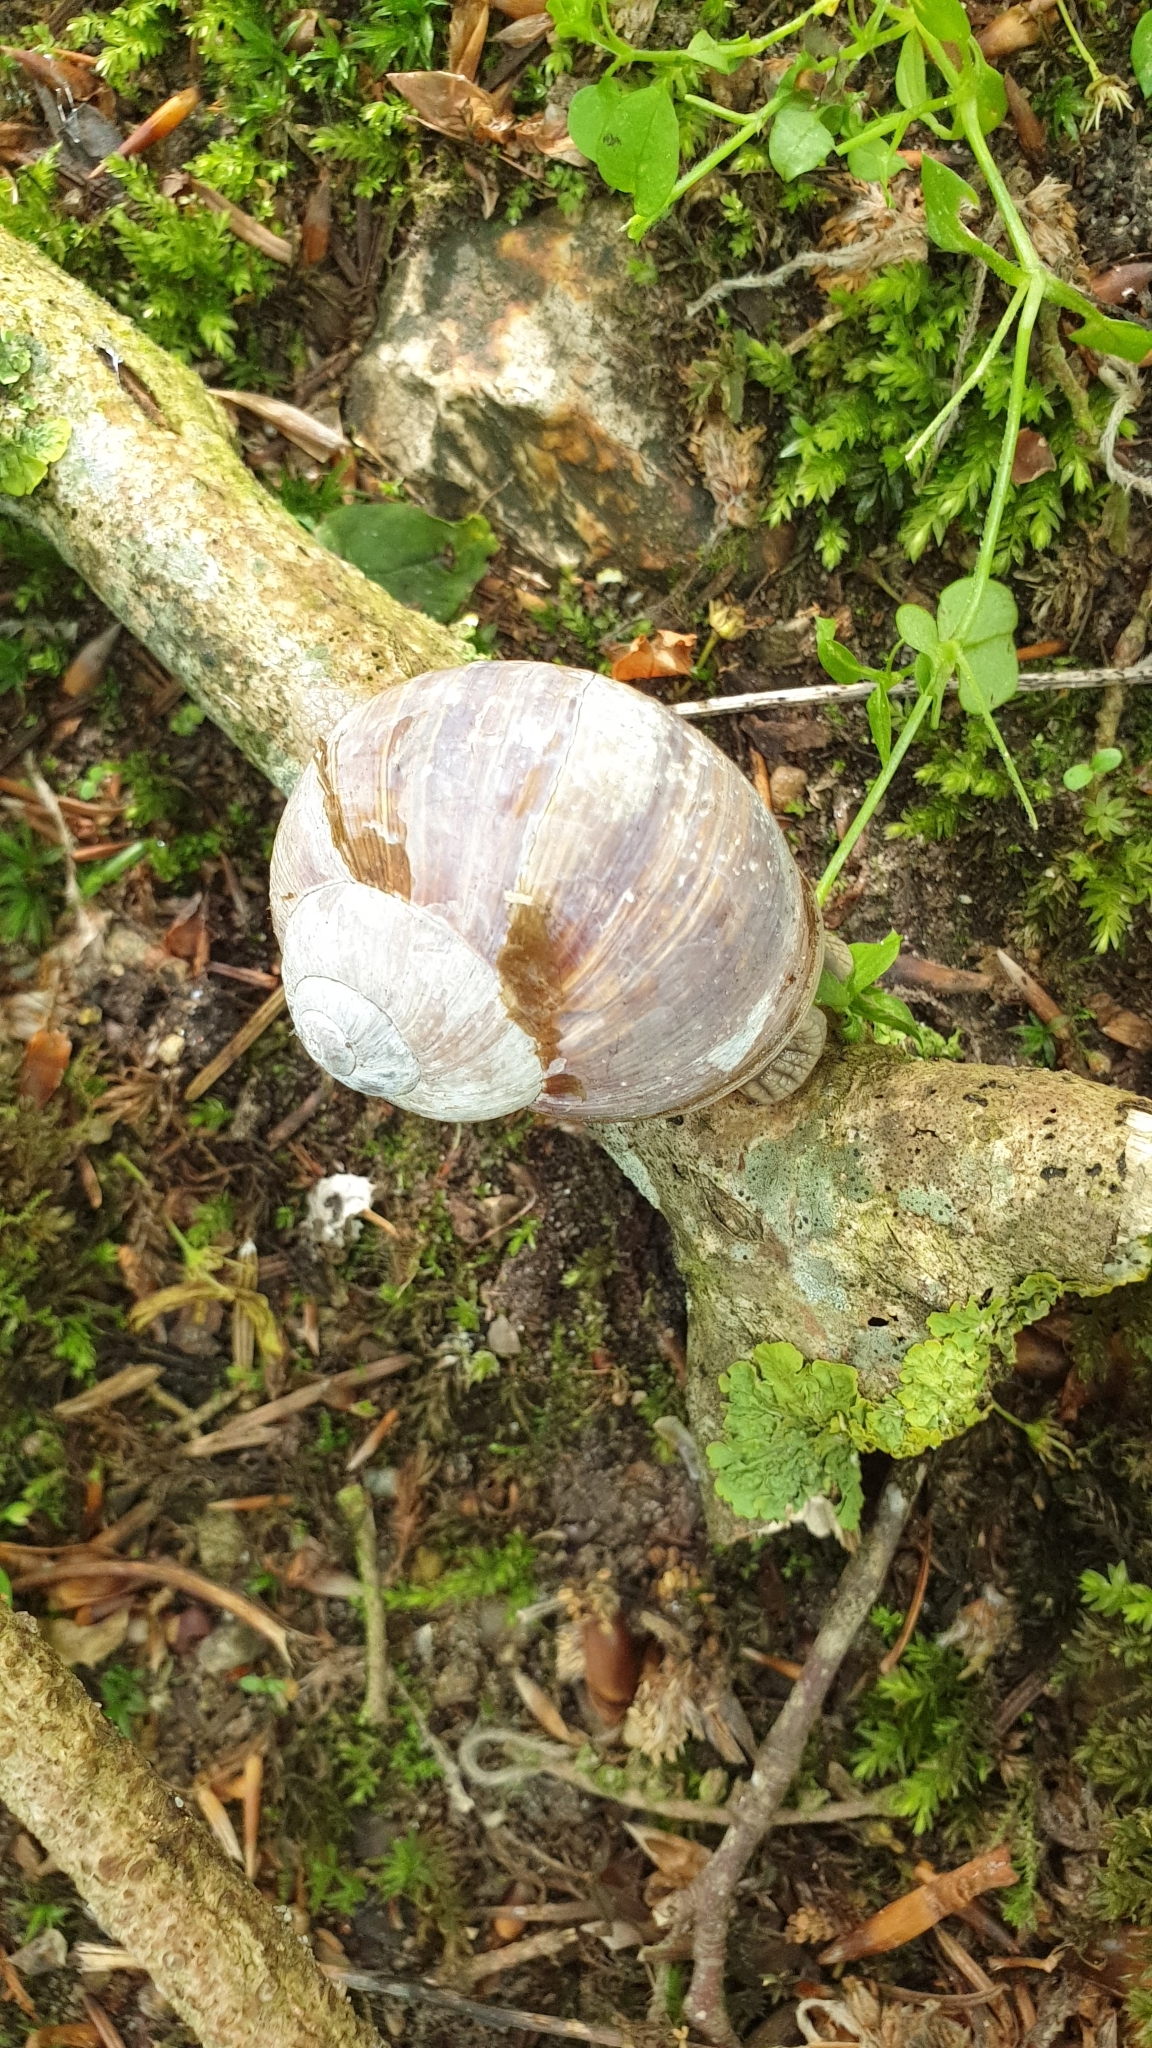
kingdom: Animalia
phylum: Mollusca
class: Gastropoda
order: Stylommatophora
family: Helicidae
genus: Helix
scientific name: Helix pomatia
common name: Roman snail
